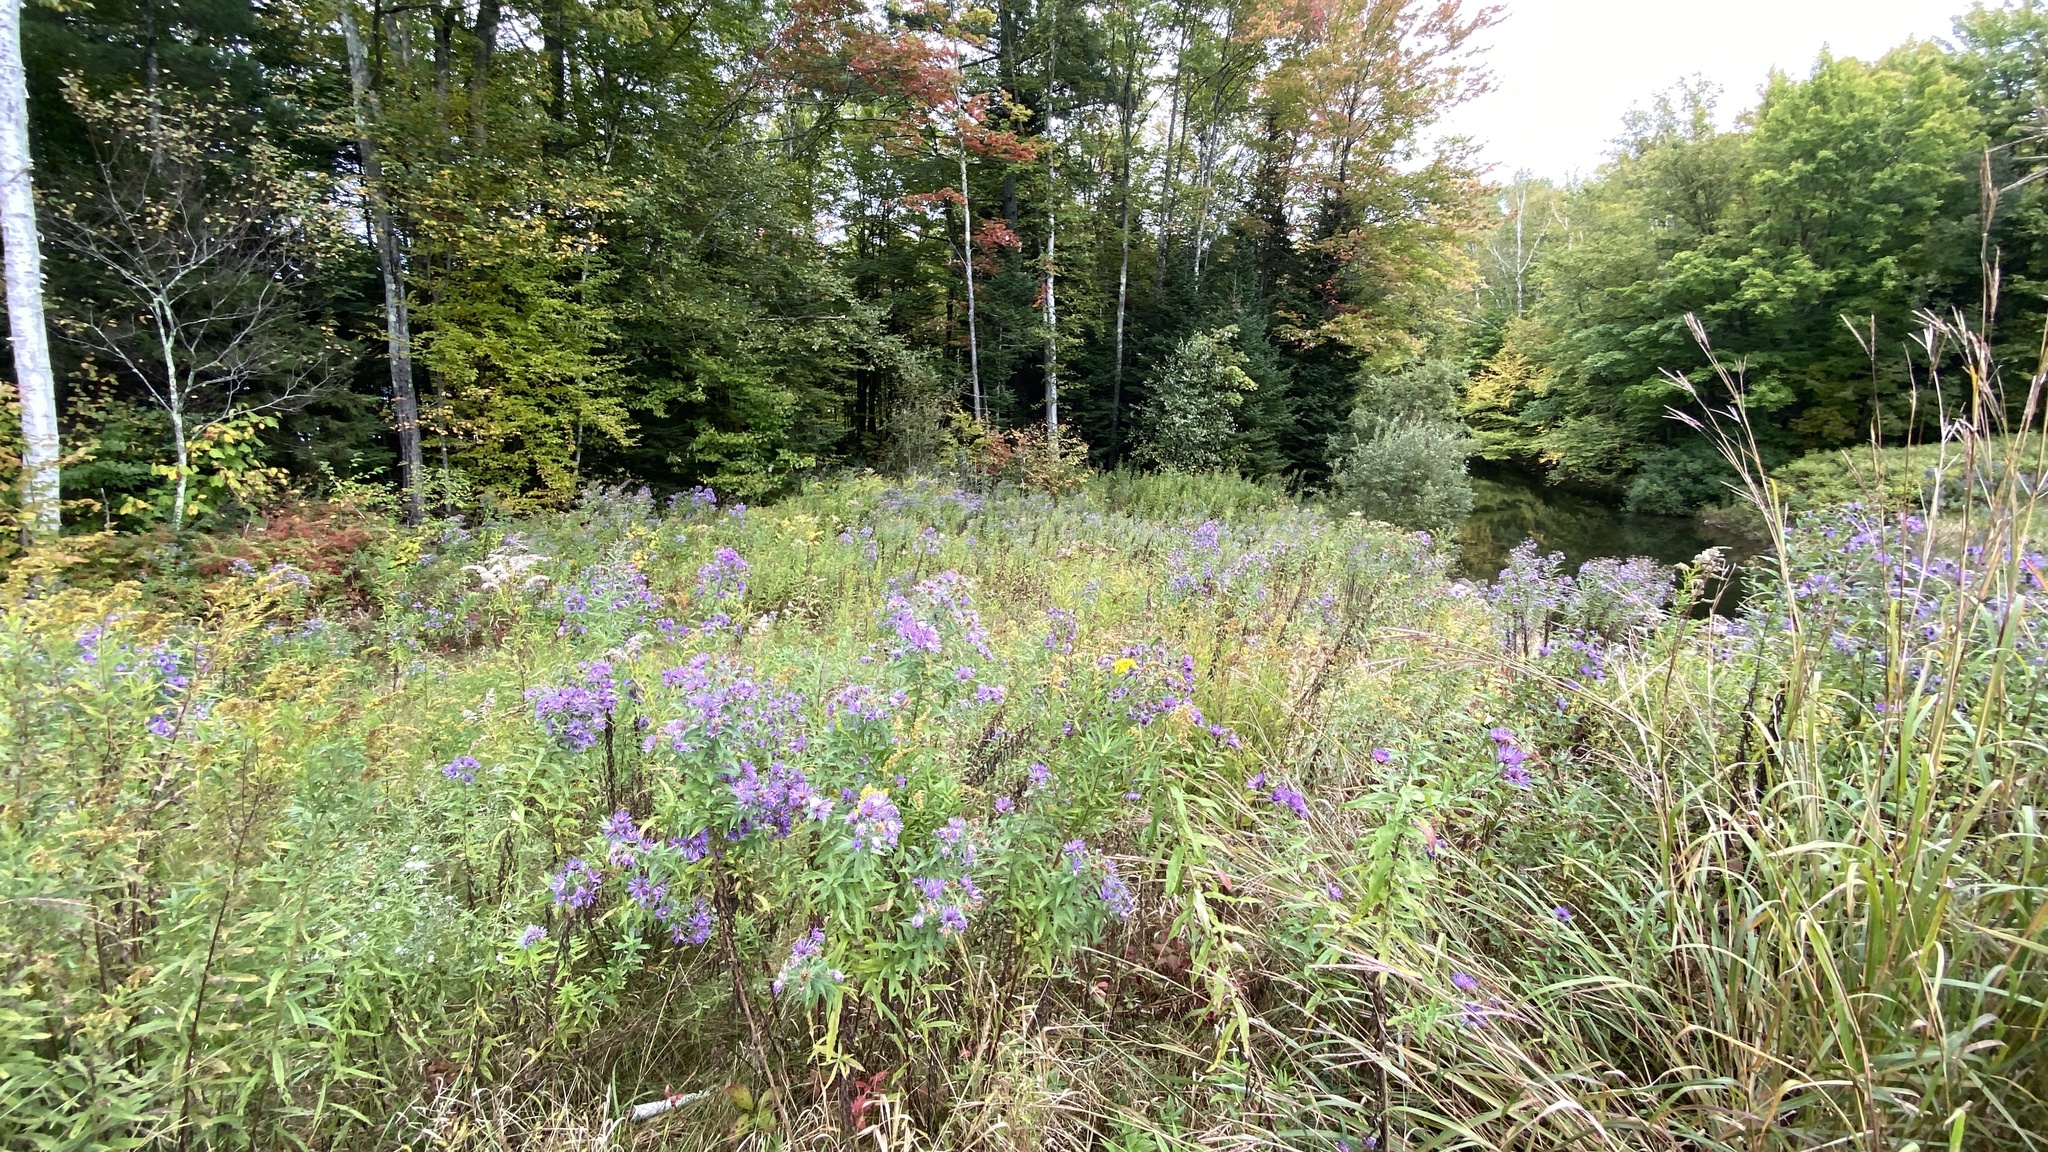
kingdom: Plantae
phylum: Tracheophyta
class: Magnoliopsida
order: Asterales
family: Asteraceae
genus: Symphyotrichum
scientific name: Symphyotrichum novae-angliae
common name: Michaelmas daisy
